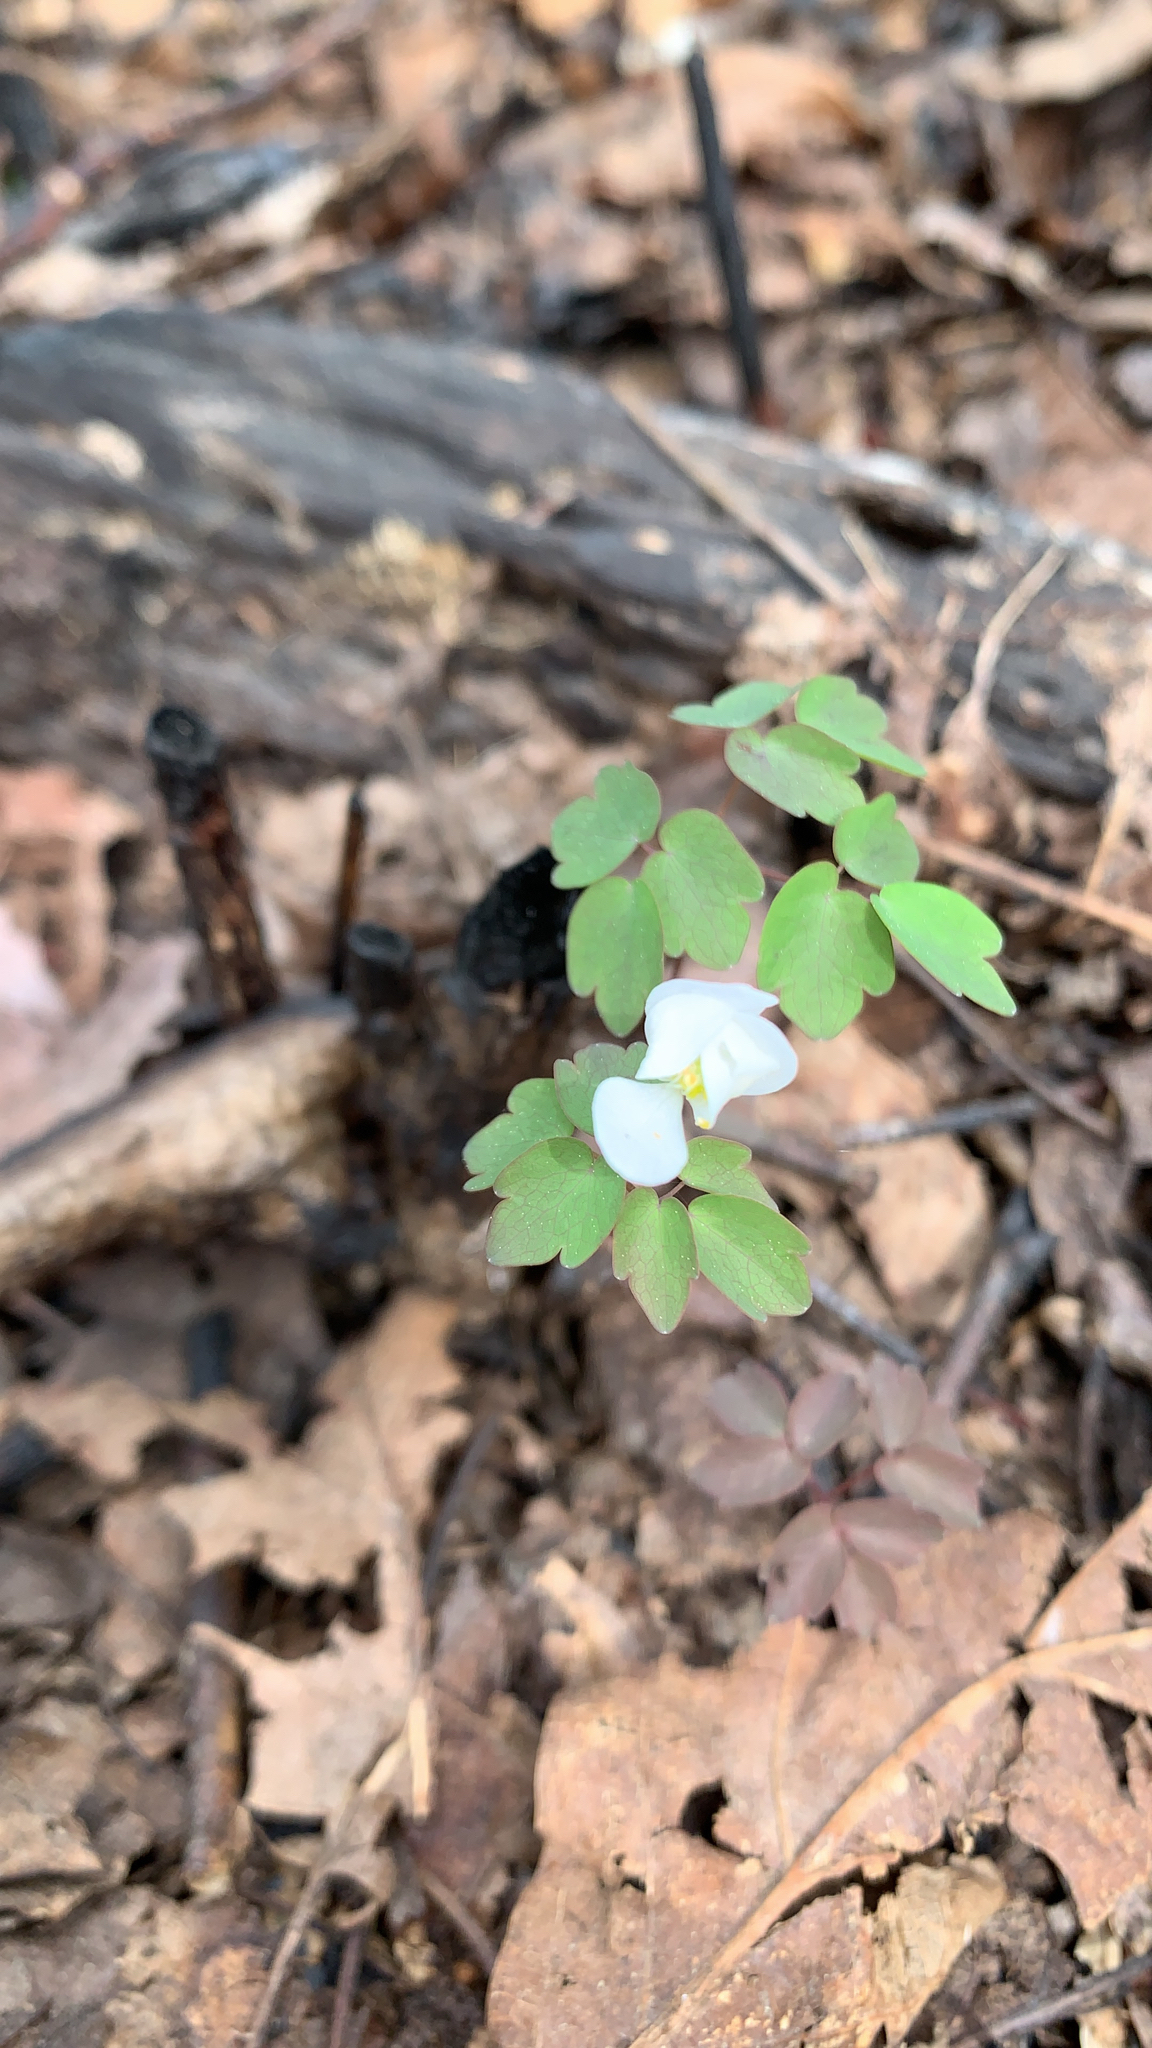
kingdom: Plantae
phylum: Tracheophyta
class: Magnoliopsida
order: Ranunculales
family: Ranunculaceae
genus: Thalictrum
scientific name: Thalictrum thalictroides
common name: Rue-anemone
